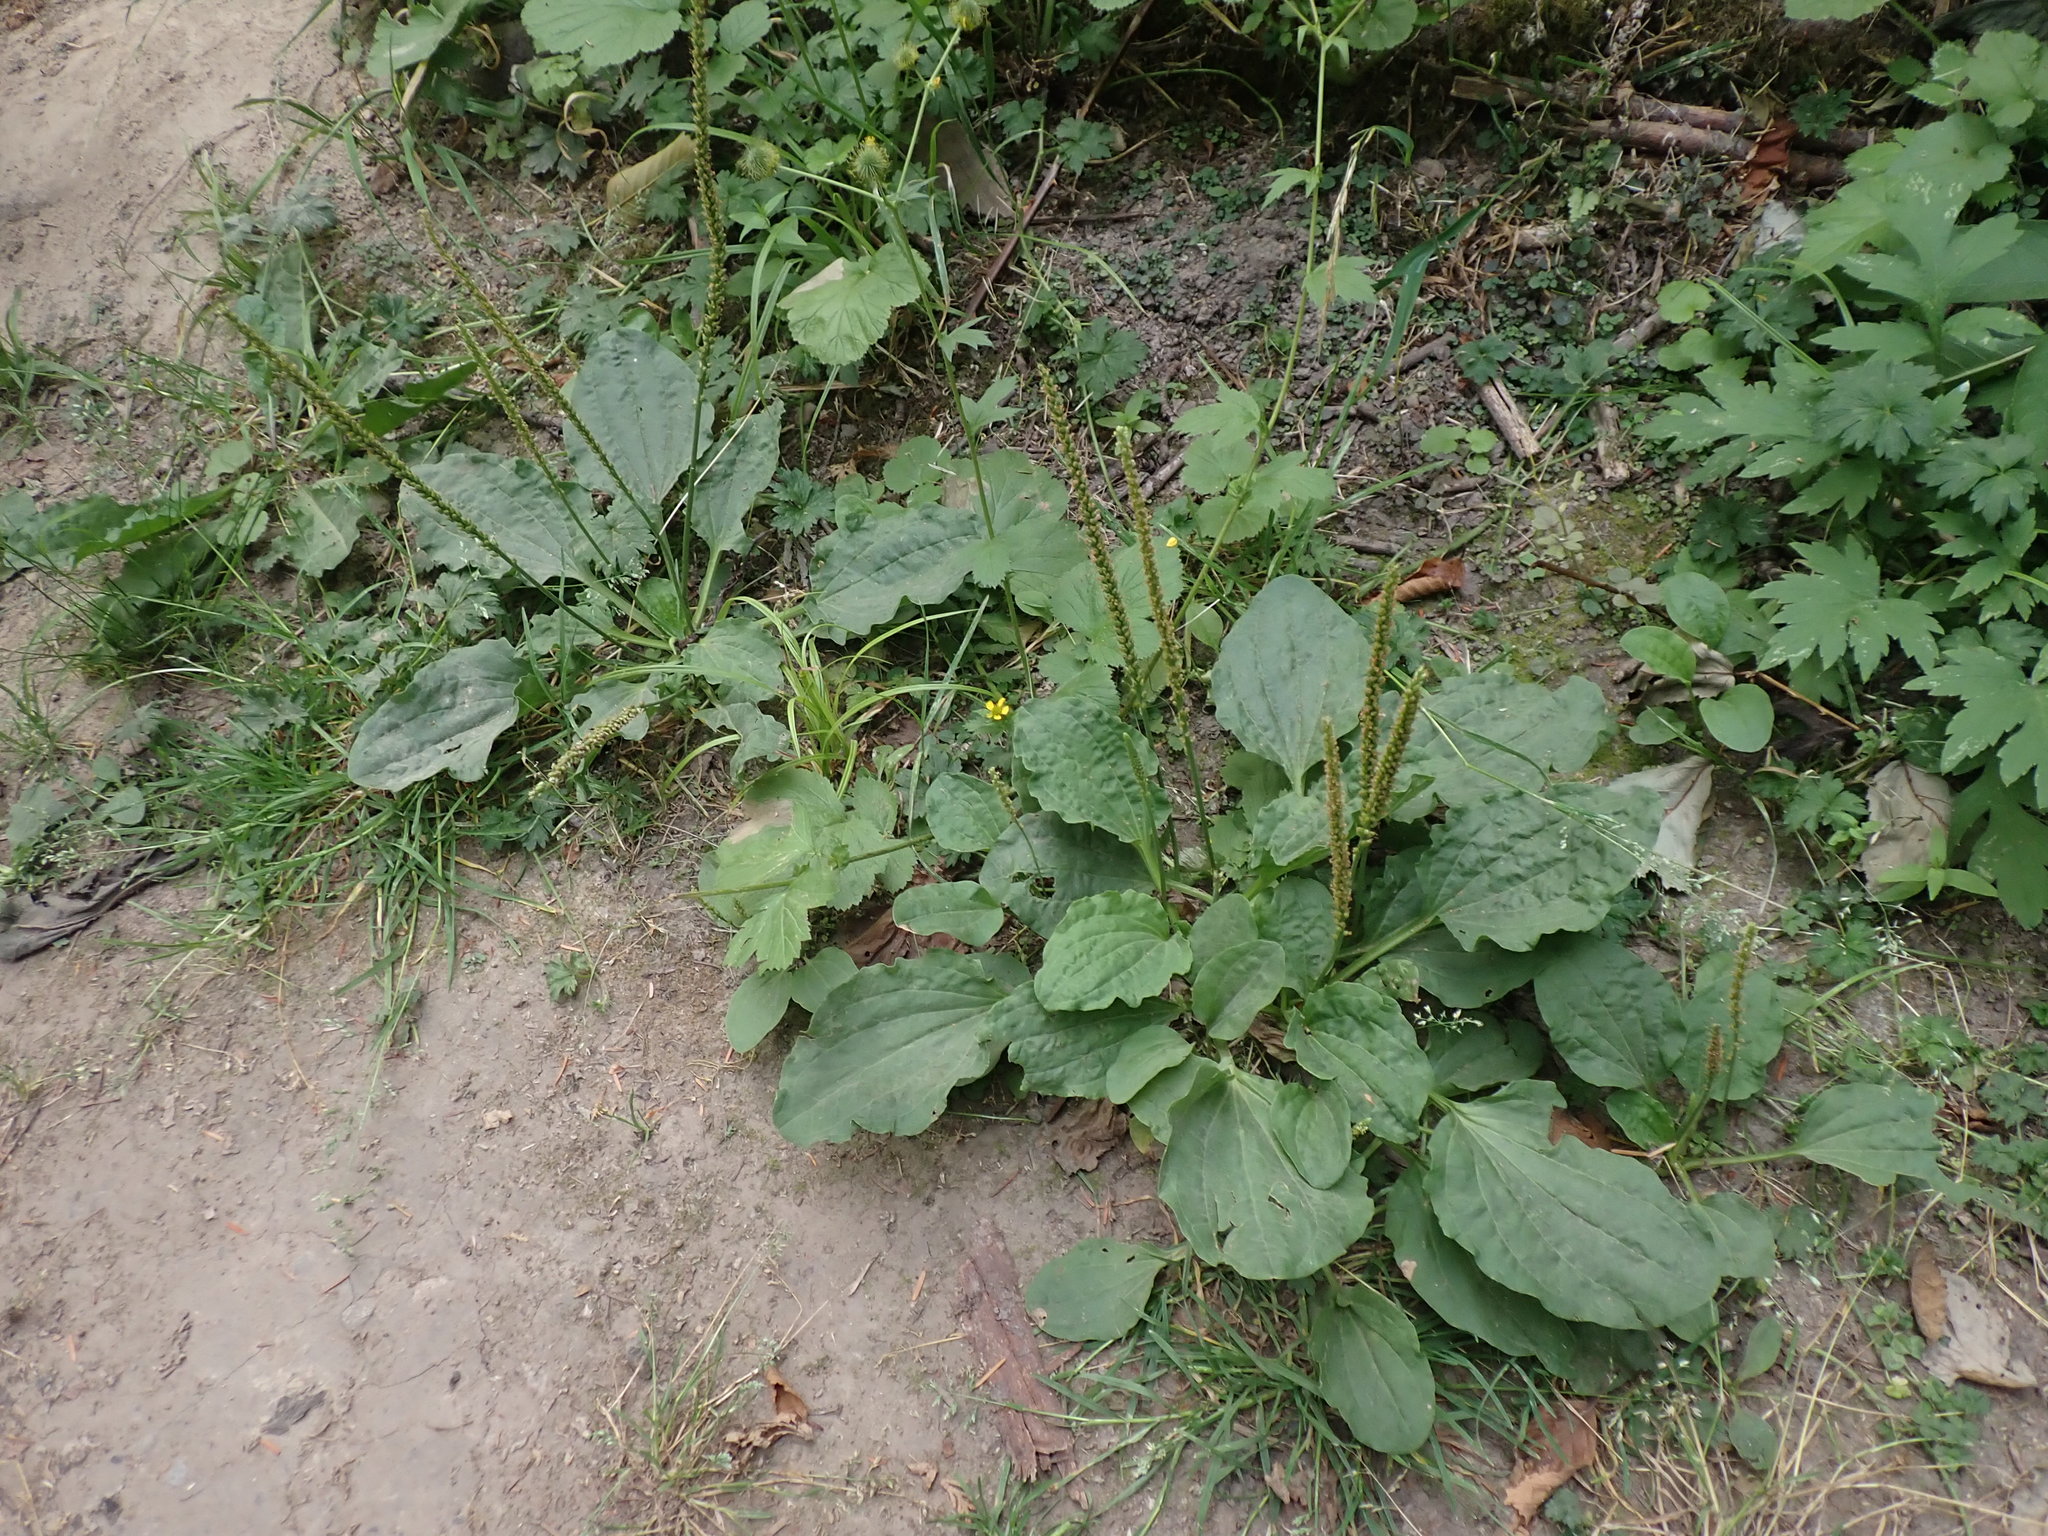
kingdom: Plantae
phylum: Tracheophyta
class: Magnoliopsida
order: Lamiales
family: Plantaginaceae
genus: Plantago
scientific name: Plantago major
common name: Common plantain
